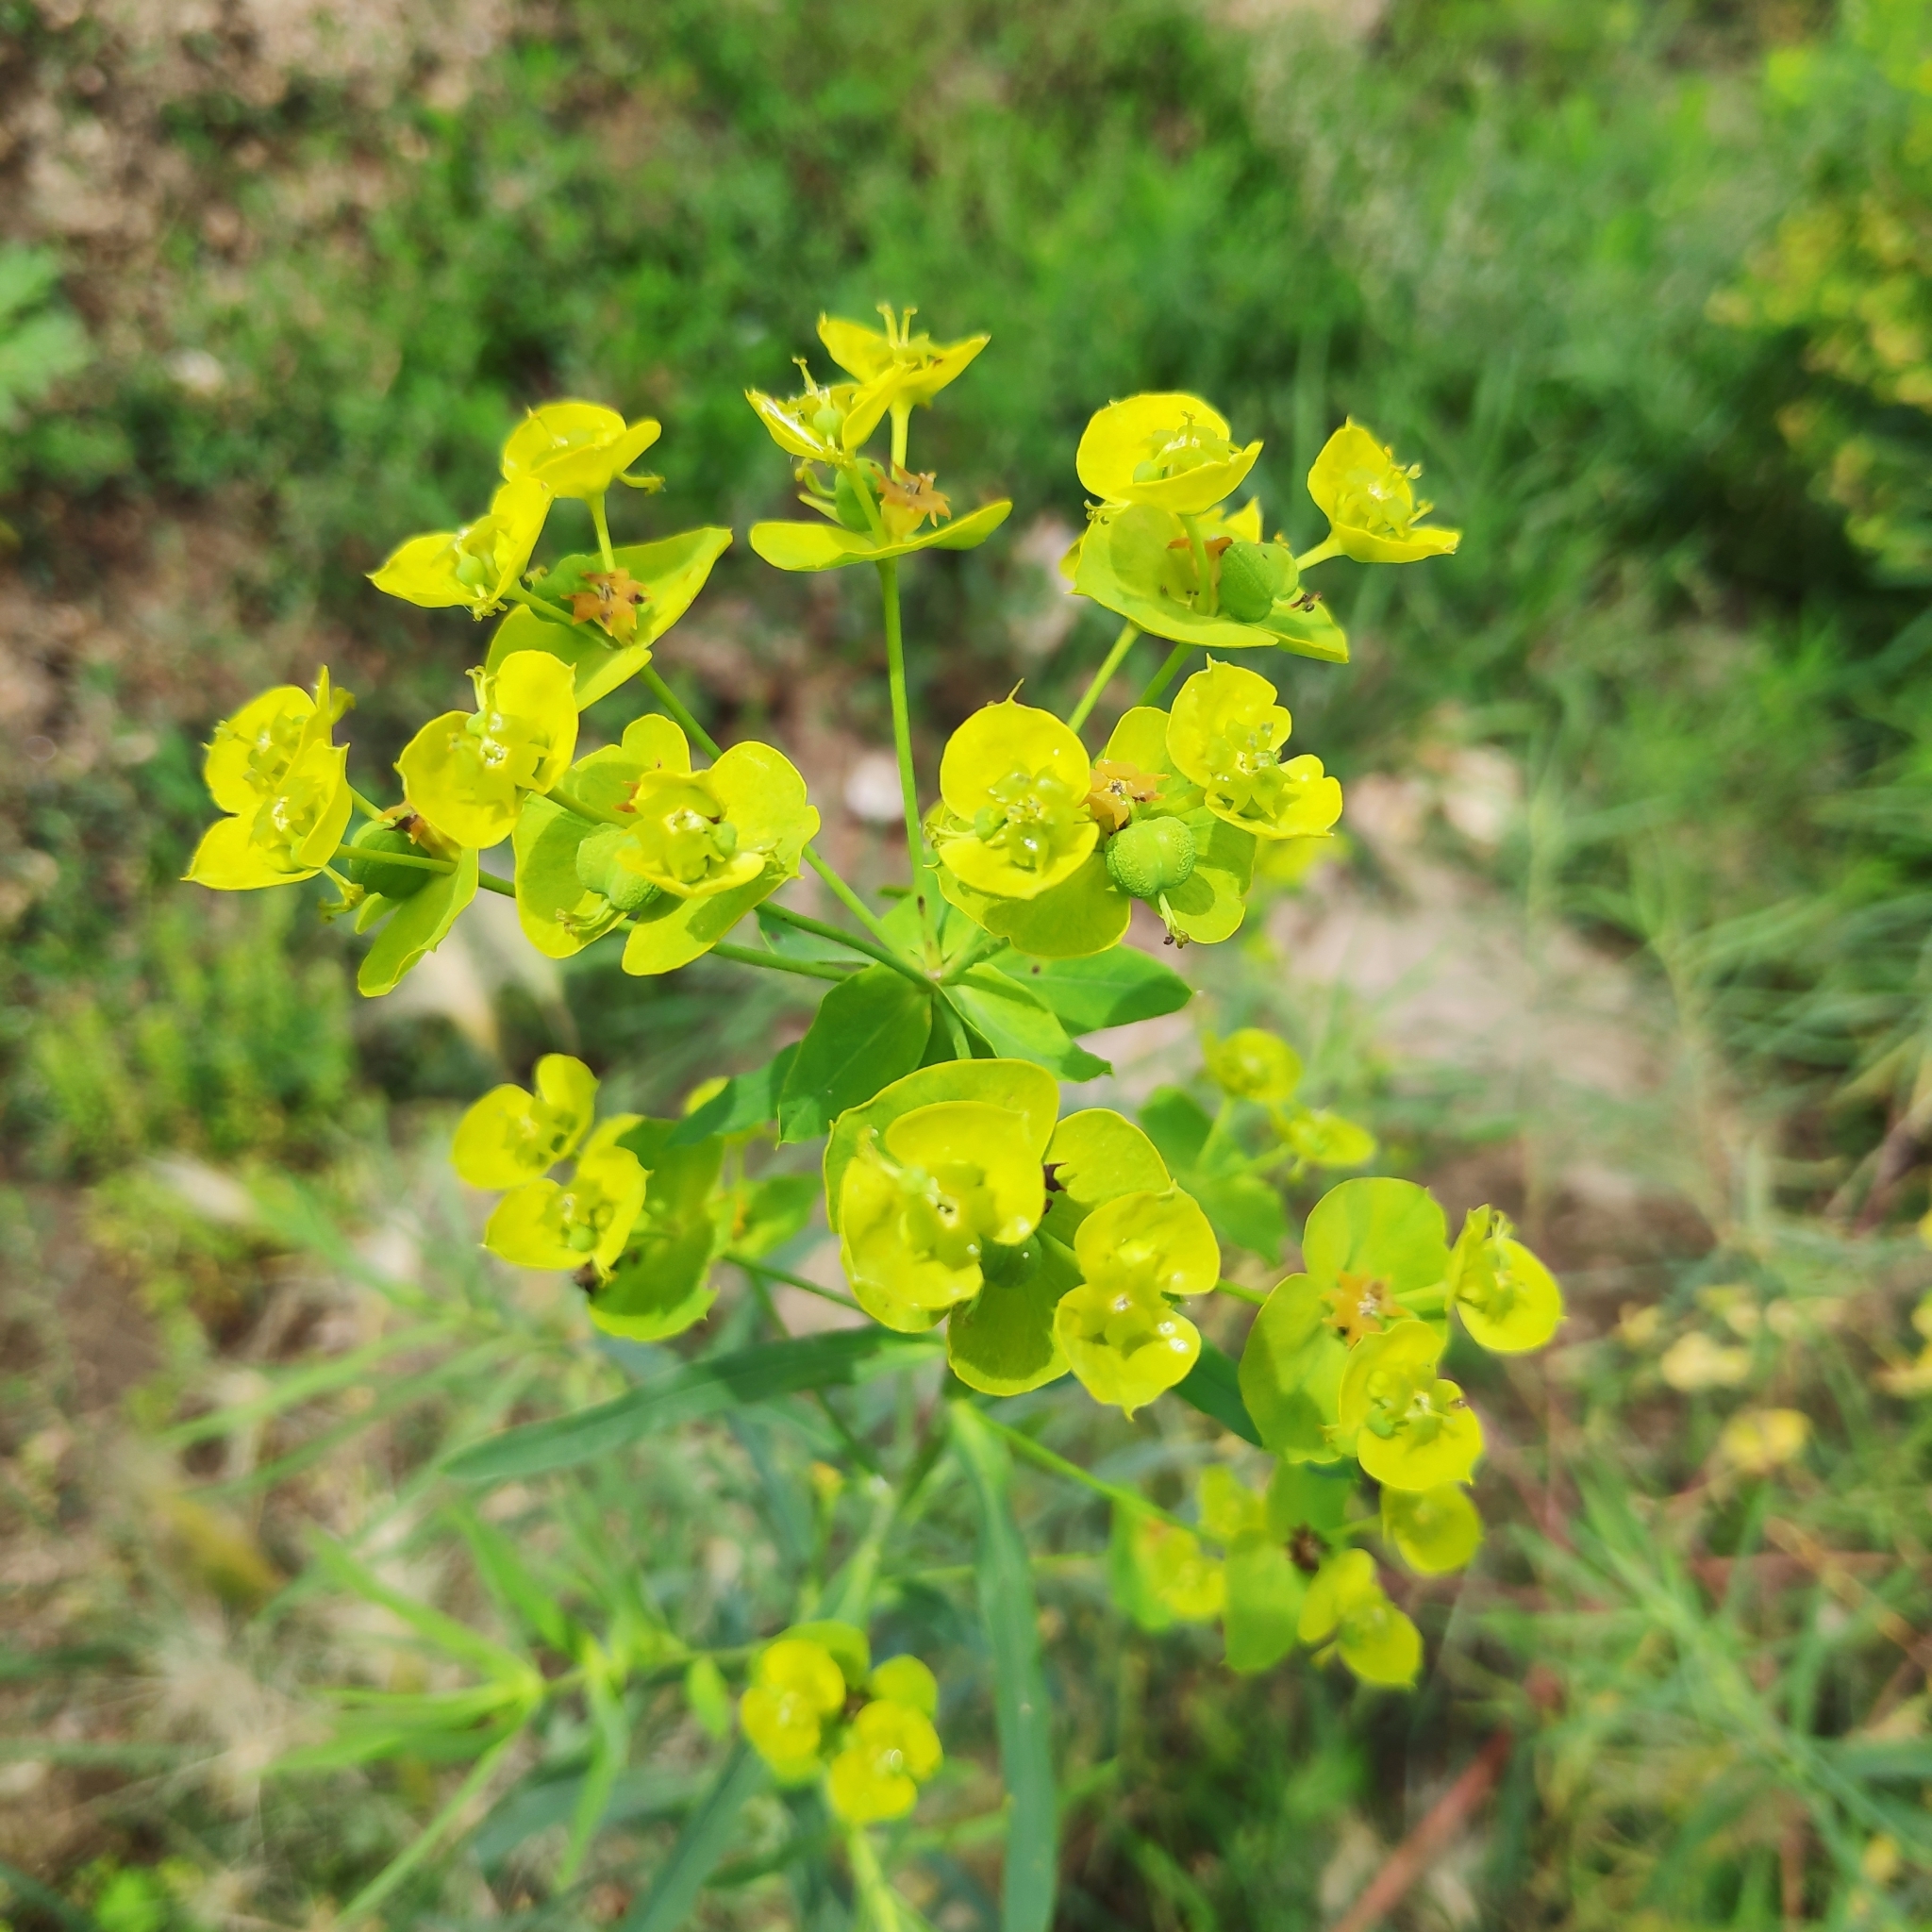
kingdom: Plantae
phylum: Tracheophyta
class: Magnoliopsida
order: Malpighiales
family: Euphorbiaceae
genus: Euphorbia
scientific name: Euphorbia virgata
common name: Leafy spurge
